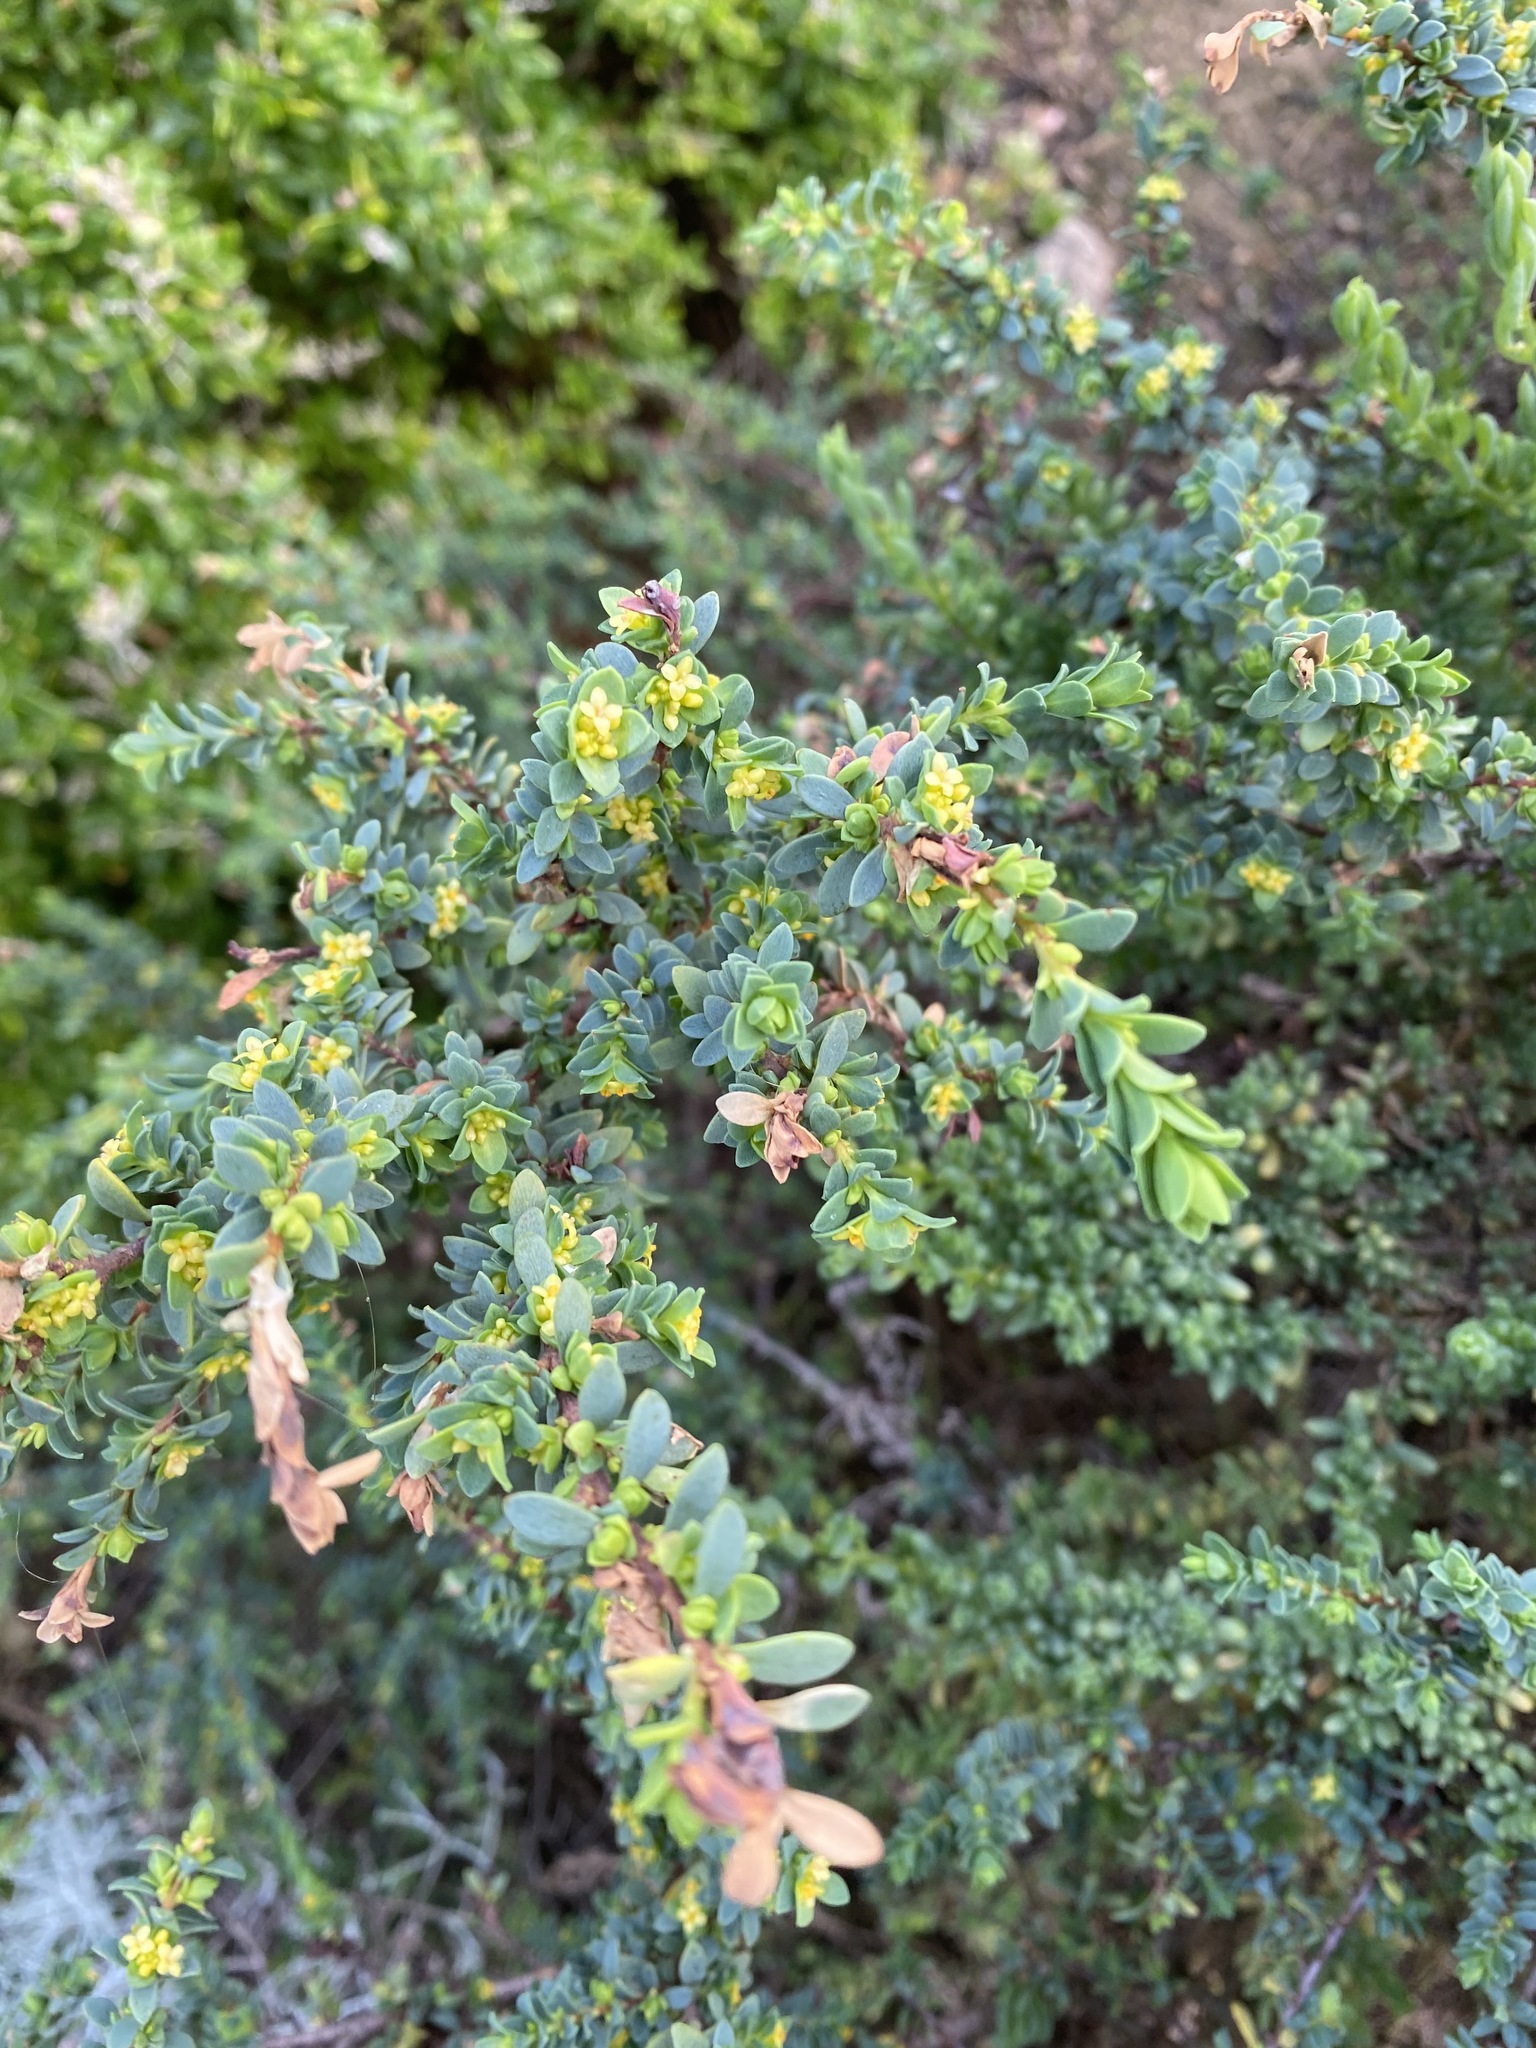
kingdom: Plantae
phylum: Tracheophyta
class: Magnoliopsida
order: Malvales
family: Thymelaeaceae
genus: Pimelea
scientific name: Pimelea serpyllifolia
